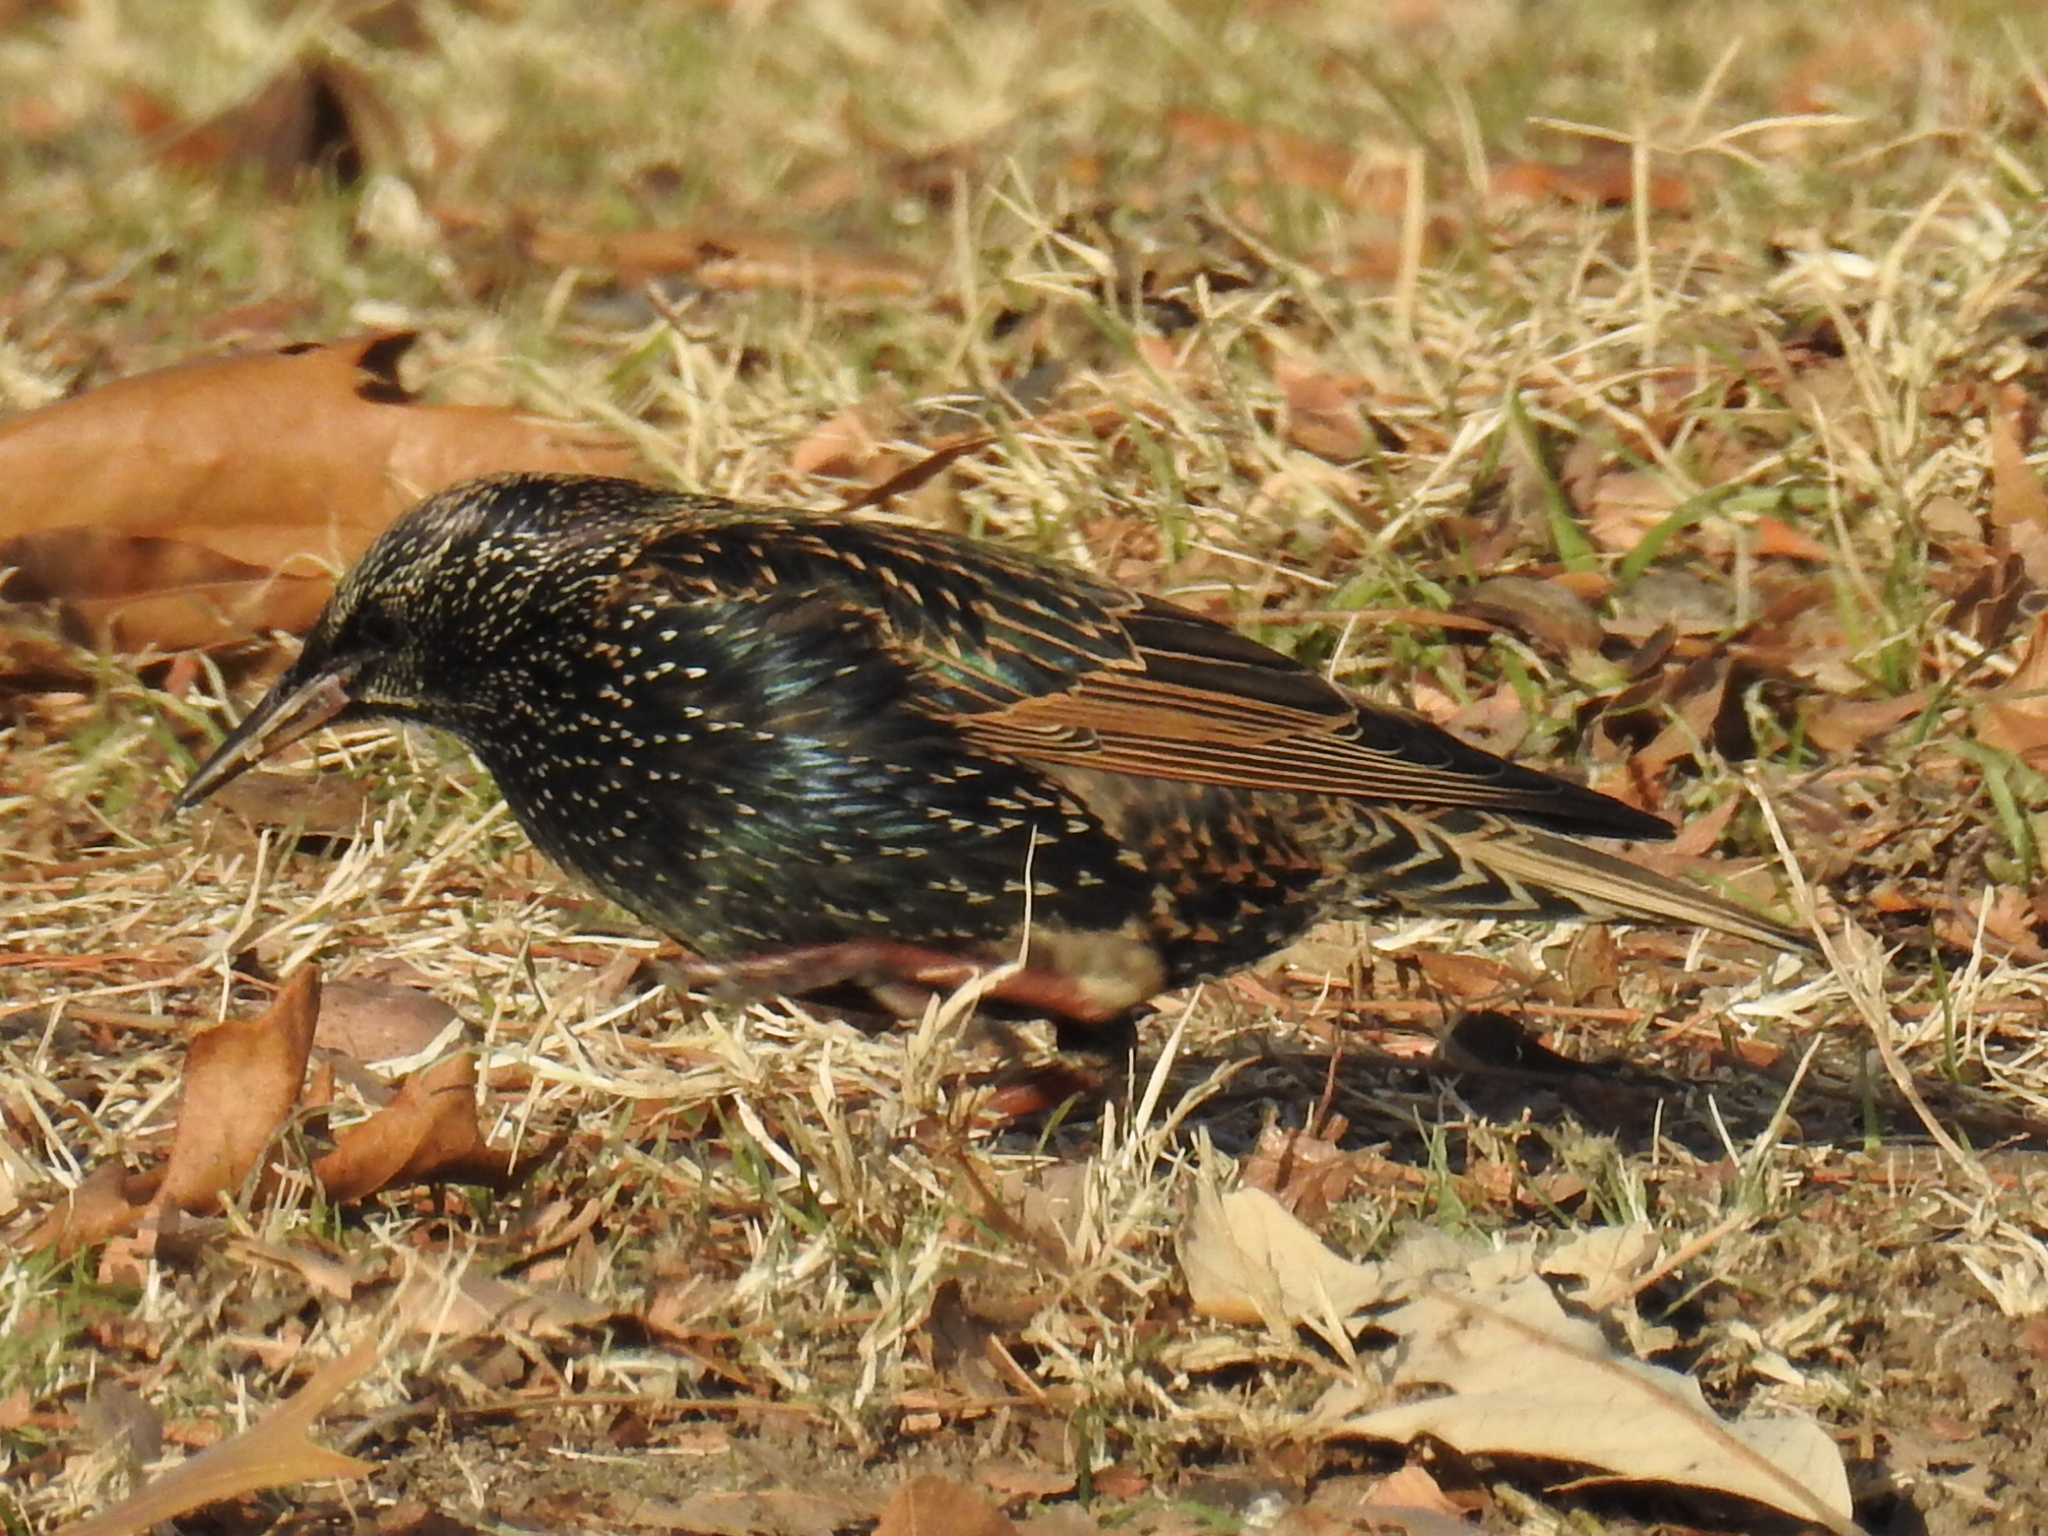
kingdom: Animalia
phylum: Chordata
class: Aves
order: Passeriformes
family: Sturnidae
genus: Sturnus
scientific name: Sturnus vulgaris
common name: Common starling
